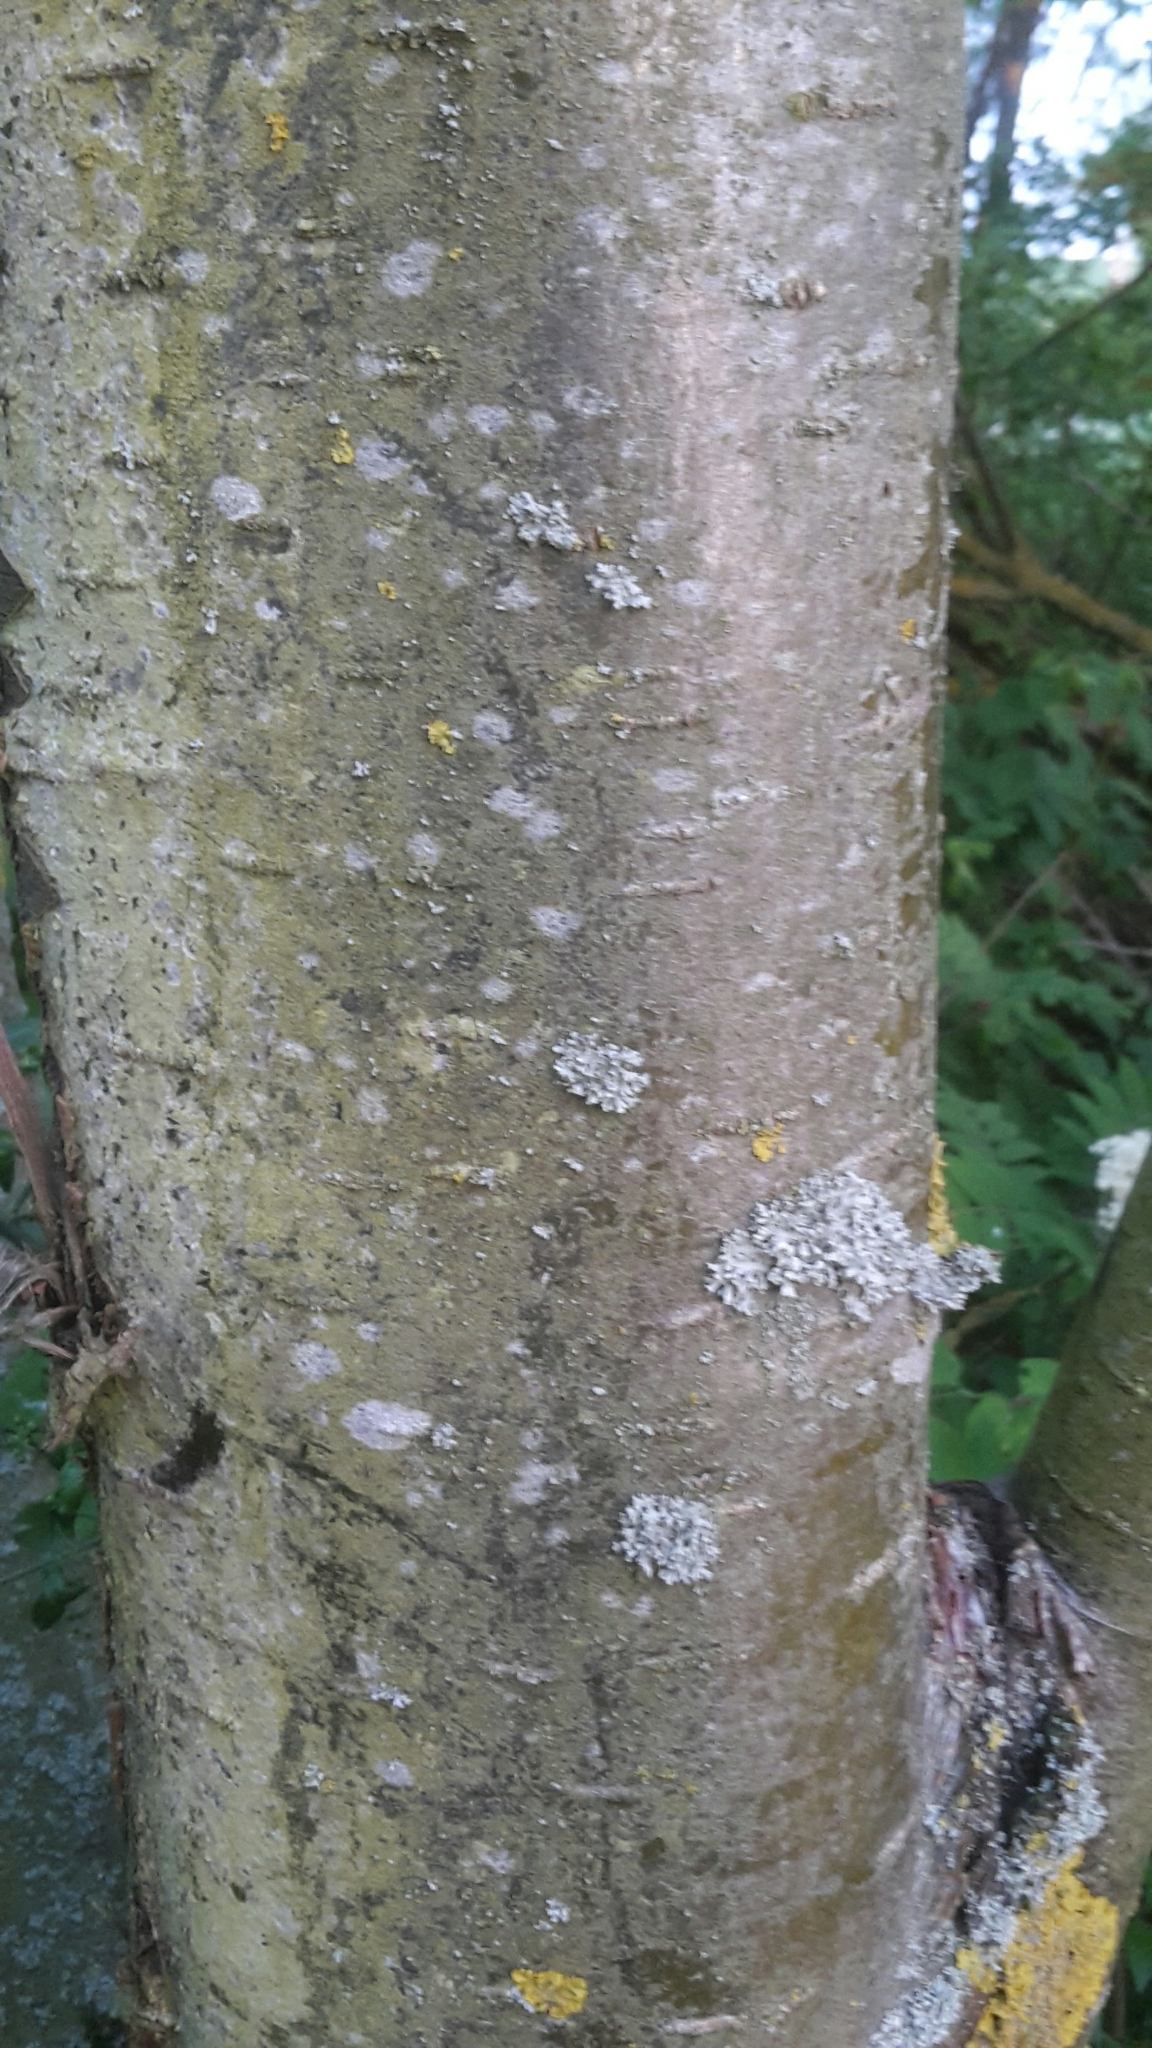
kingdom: Plantae
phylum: Tracheophyta
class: Magnoliopsida
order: Rosales
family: Rosaceae
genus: Sorbus
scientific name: Sorbus aucuparia
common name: Rowan
